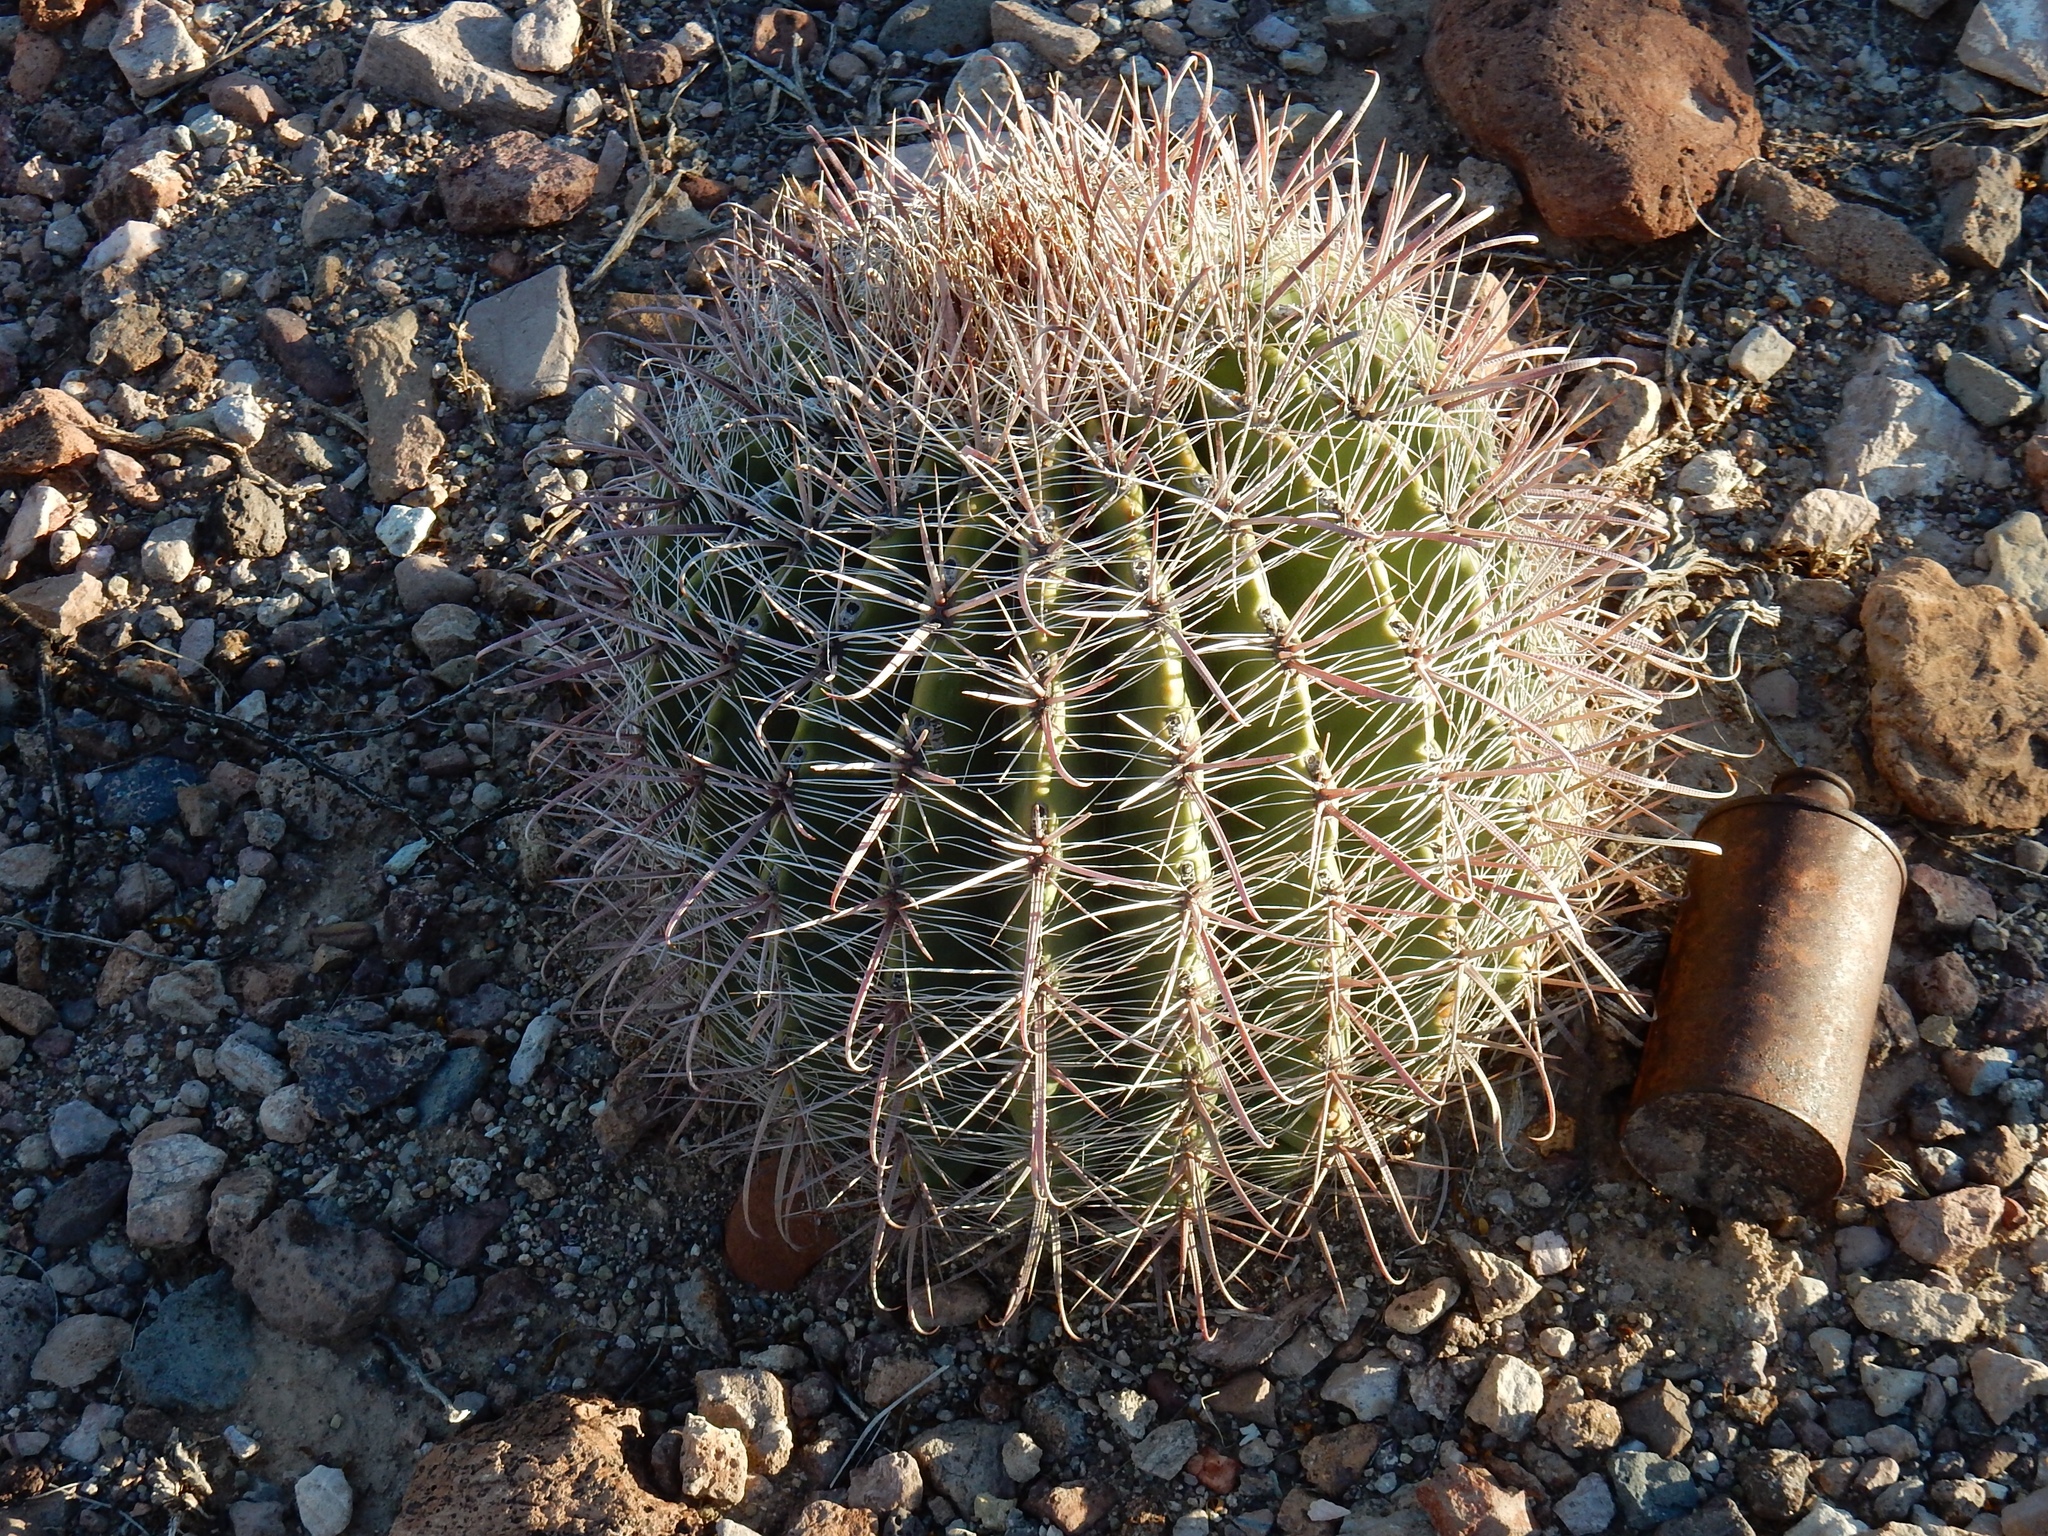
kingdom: Plantae
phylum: Tracheophyta
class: Magnoliopsida
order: Caryophyllales
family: Cactaceae
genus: Ferocactus
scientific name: Ferocactus wislizeni
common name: Candy barrel cactus
